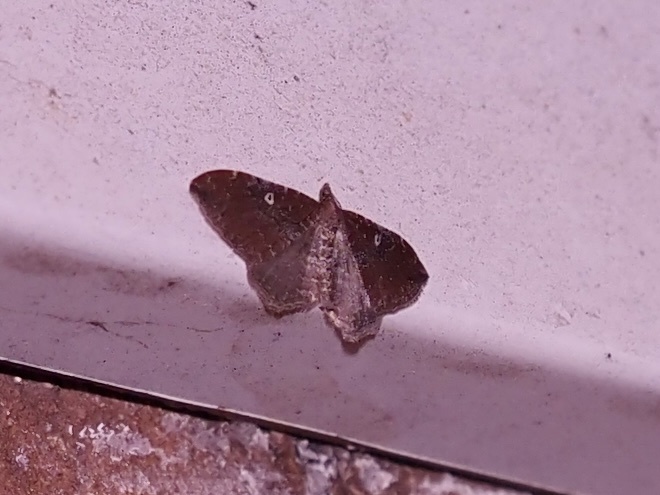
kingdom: Animalia
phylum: Arthropoda
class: Insecta
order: Lepidoptera
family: Geometridae
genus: Orthonama
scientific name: Orthonama obstipata
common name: The gem
